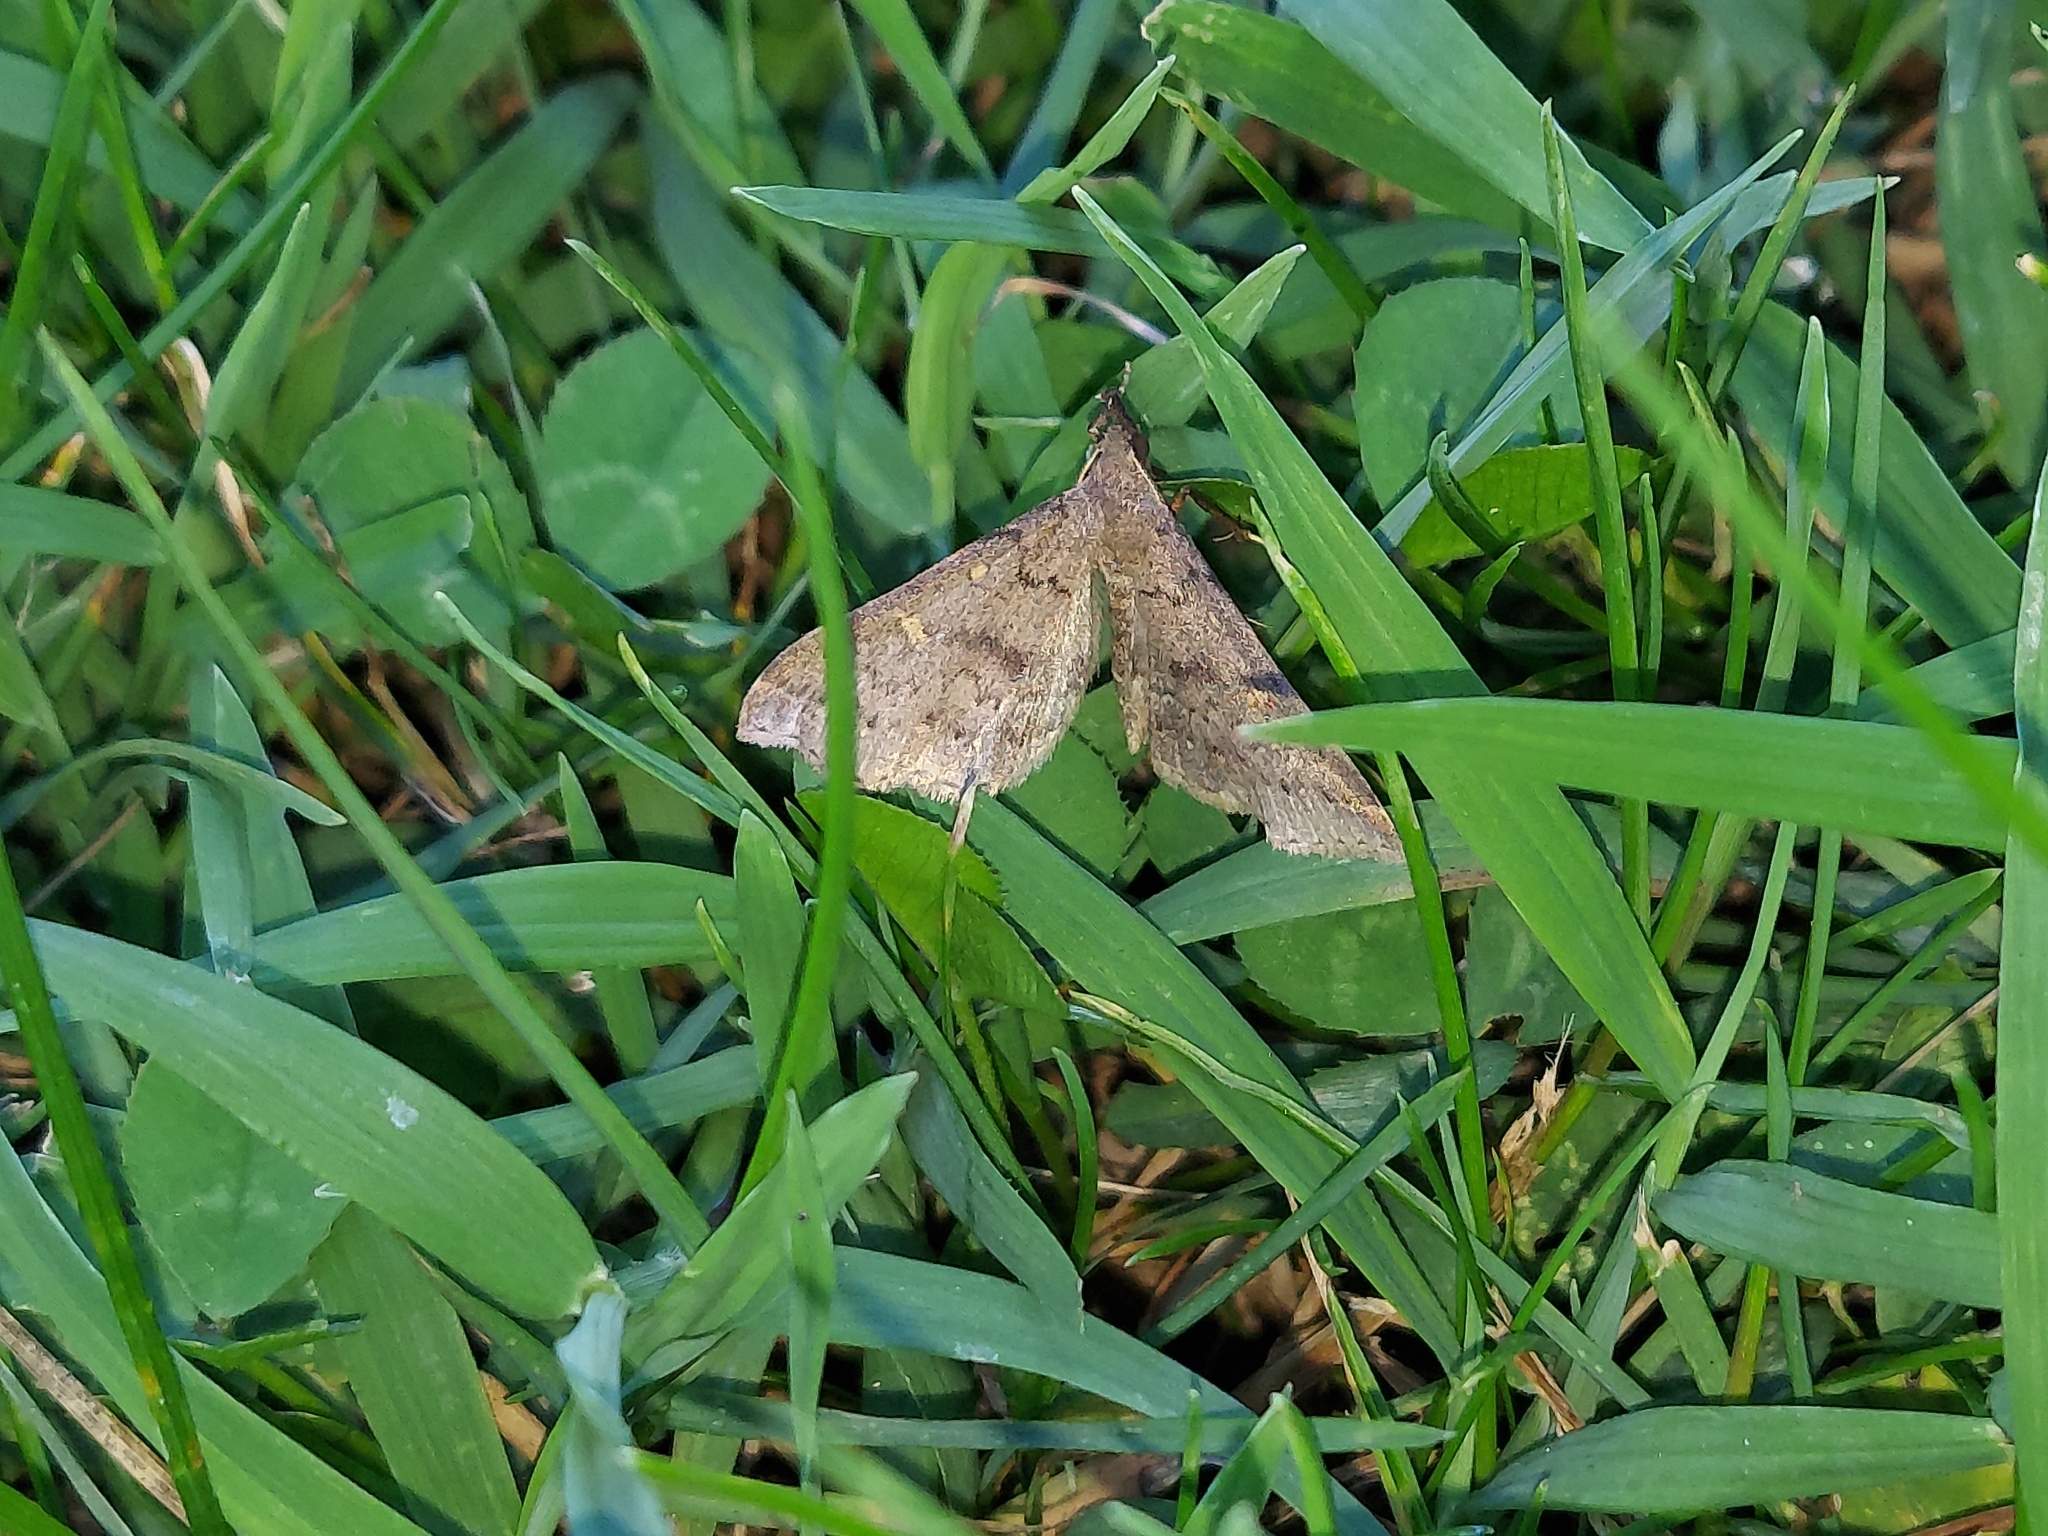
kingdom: Animalia
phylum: Arthropoda
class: Insecta
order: Lepidoptera
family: Erebidae
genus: Renia
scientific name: Renia adspergillus
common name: Speckled renia moth
